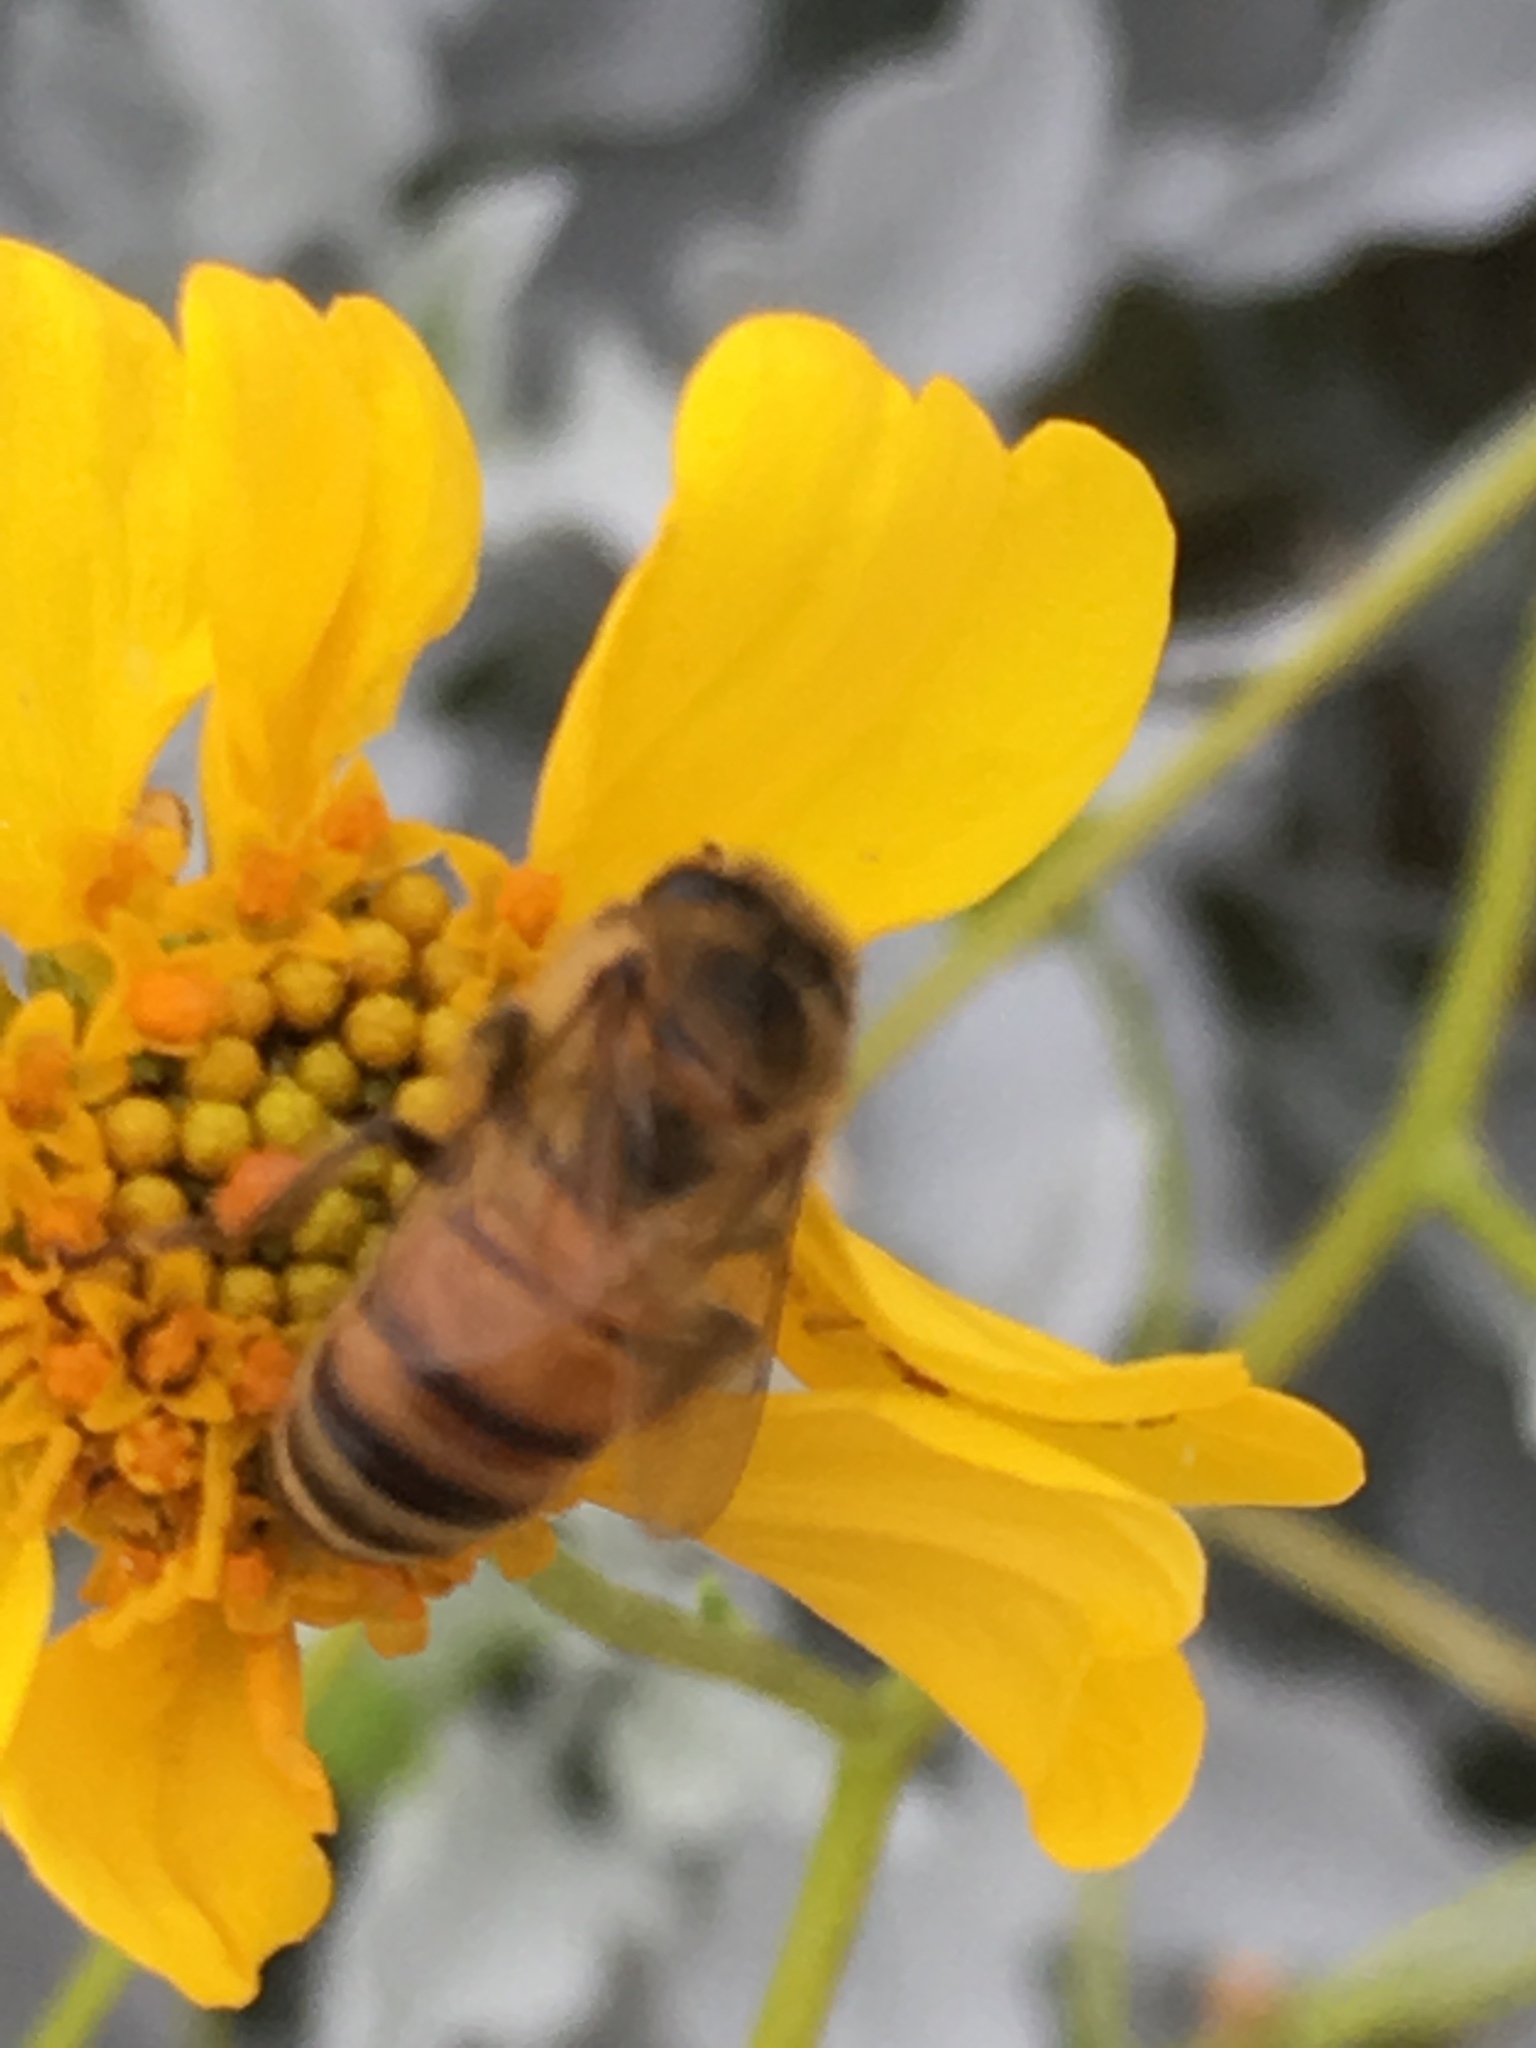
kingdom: Animalia
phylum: Arthropoda
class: Insecta
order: Hymenoptera
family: Apidae
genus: Apis
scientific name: Apis mellifera
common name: Honey bee
